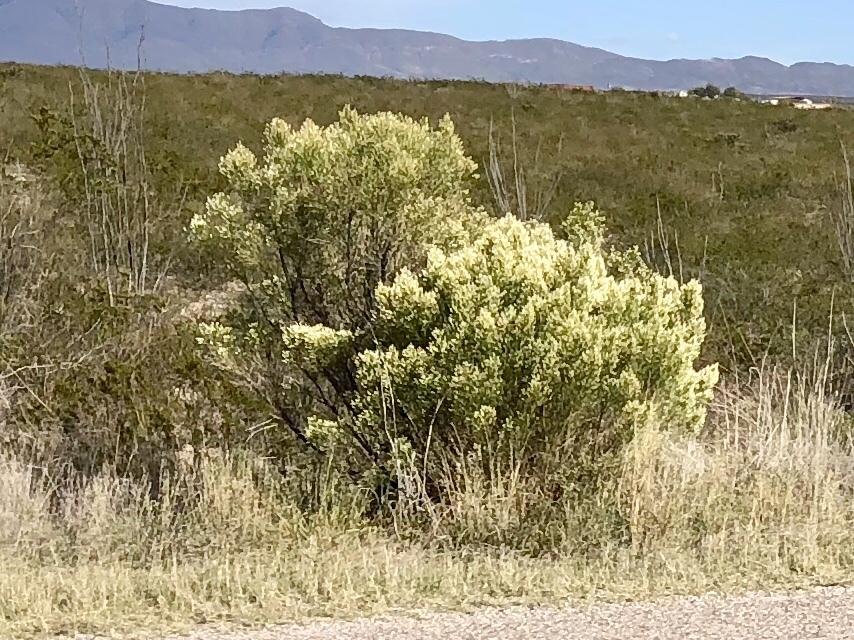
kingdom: Plantae
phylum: Tracheophyta
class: Magnoliopsida
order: Asterales
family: Asteraceae
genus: Baccharis
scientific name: Baccharis sarothroides
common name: Desert-broom
